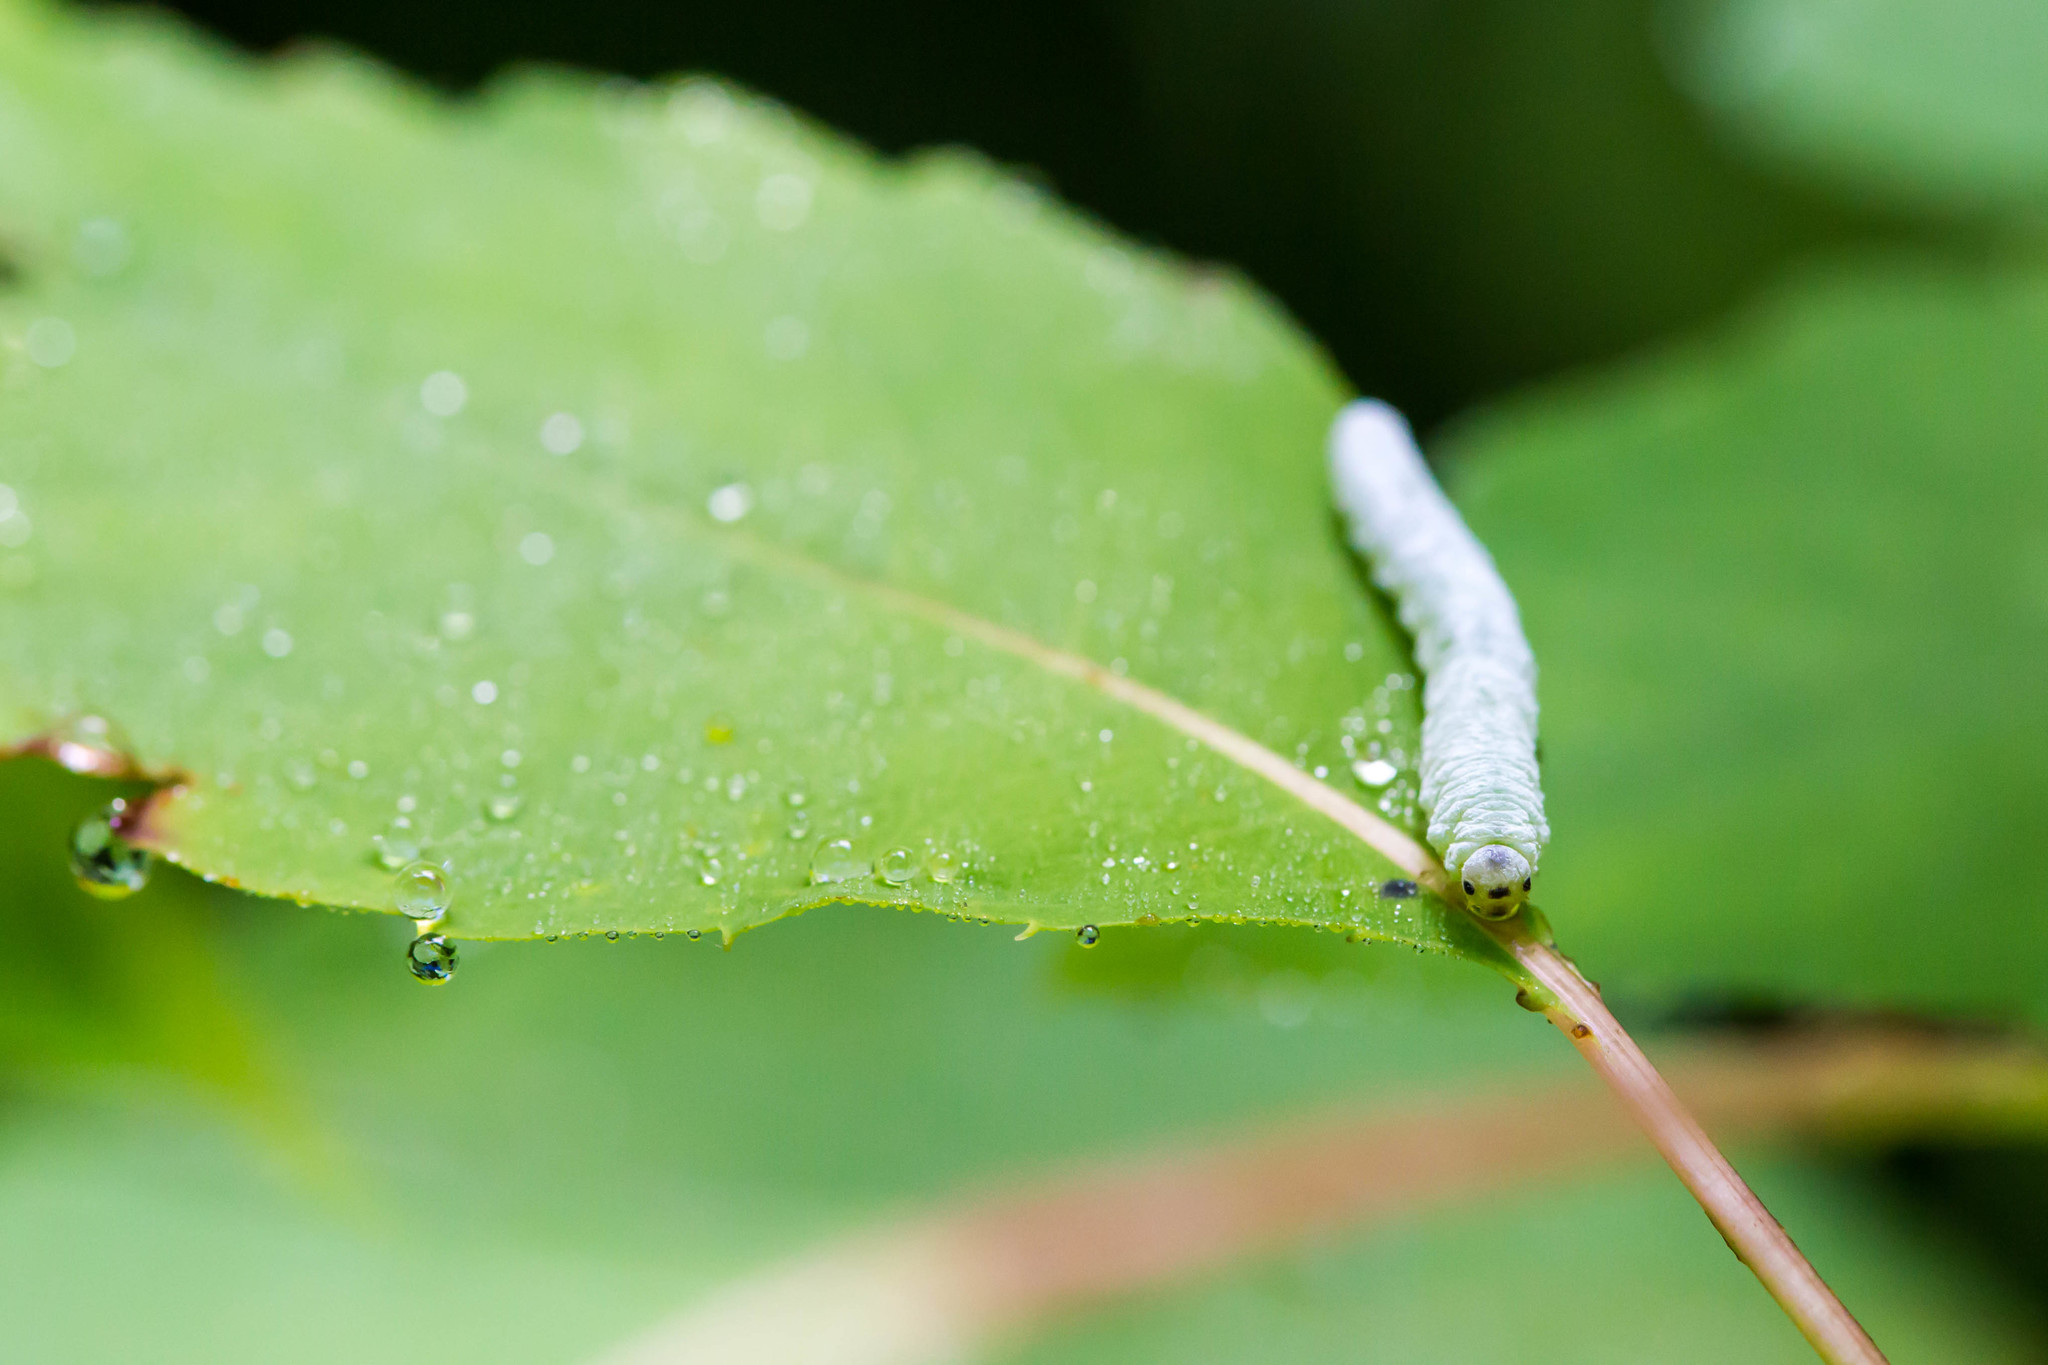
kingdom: Animalia
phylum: Arthropoda
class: Insecta
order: Hymenoptera
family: Tenthredinidae
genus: Aglaostigma
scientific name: Aglaostigma
